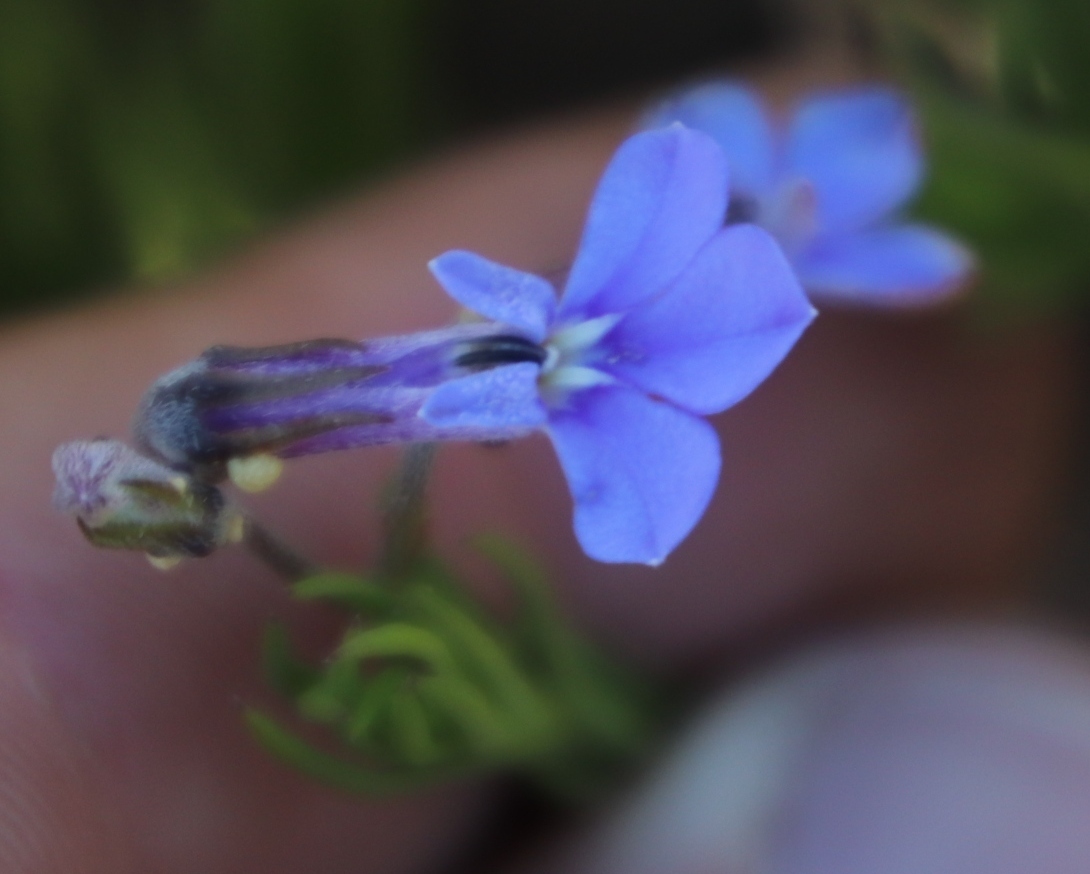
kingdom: Plantae
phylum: Tracheophyta
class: Magnoliopsida
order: Asterales
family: Campanulaceae
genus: Lobelia
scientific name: Lobelia pinifolia
